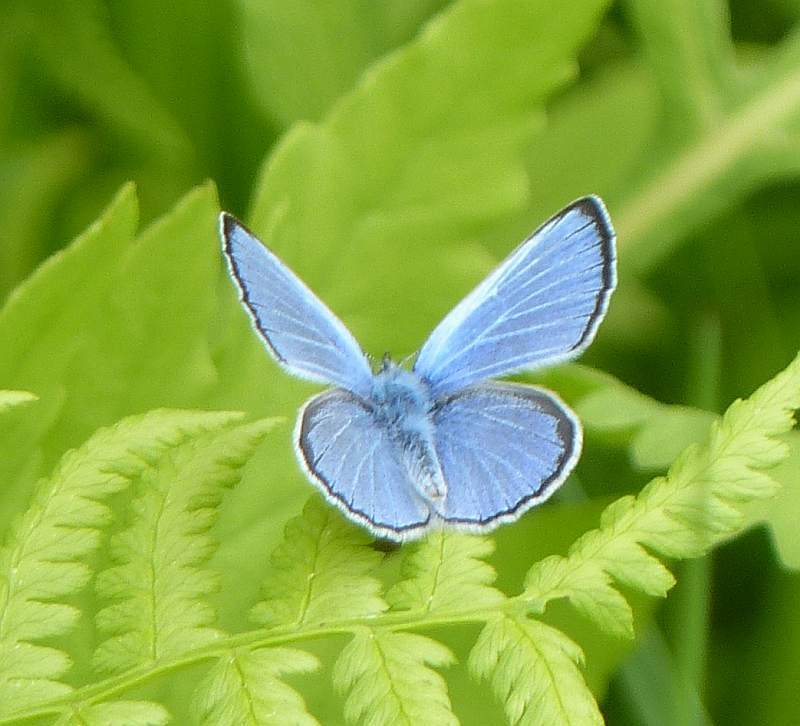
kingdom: Animalia
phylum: Arthropoda
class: Insecta
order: Lepidoptera
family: Lycaenidae
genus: Glaucopsyche
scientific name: Glaucopsyche lygdamus
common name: Silvery blue
